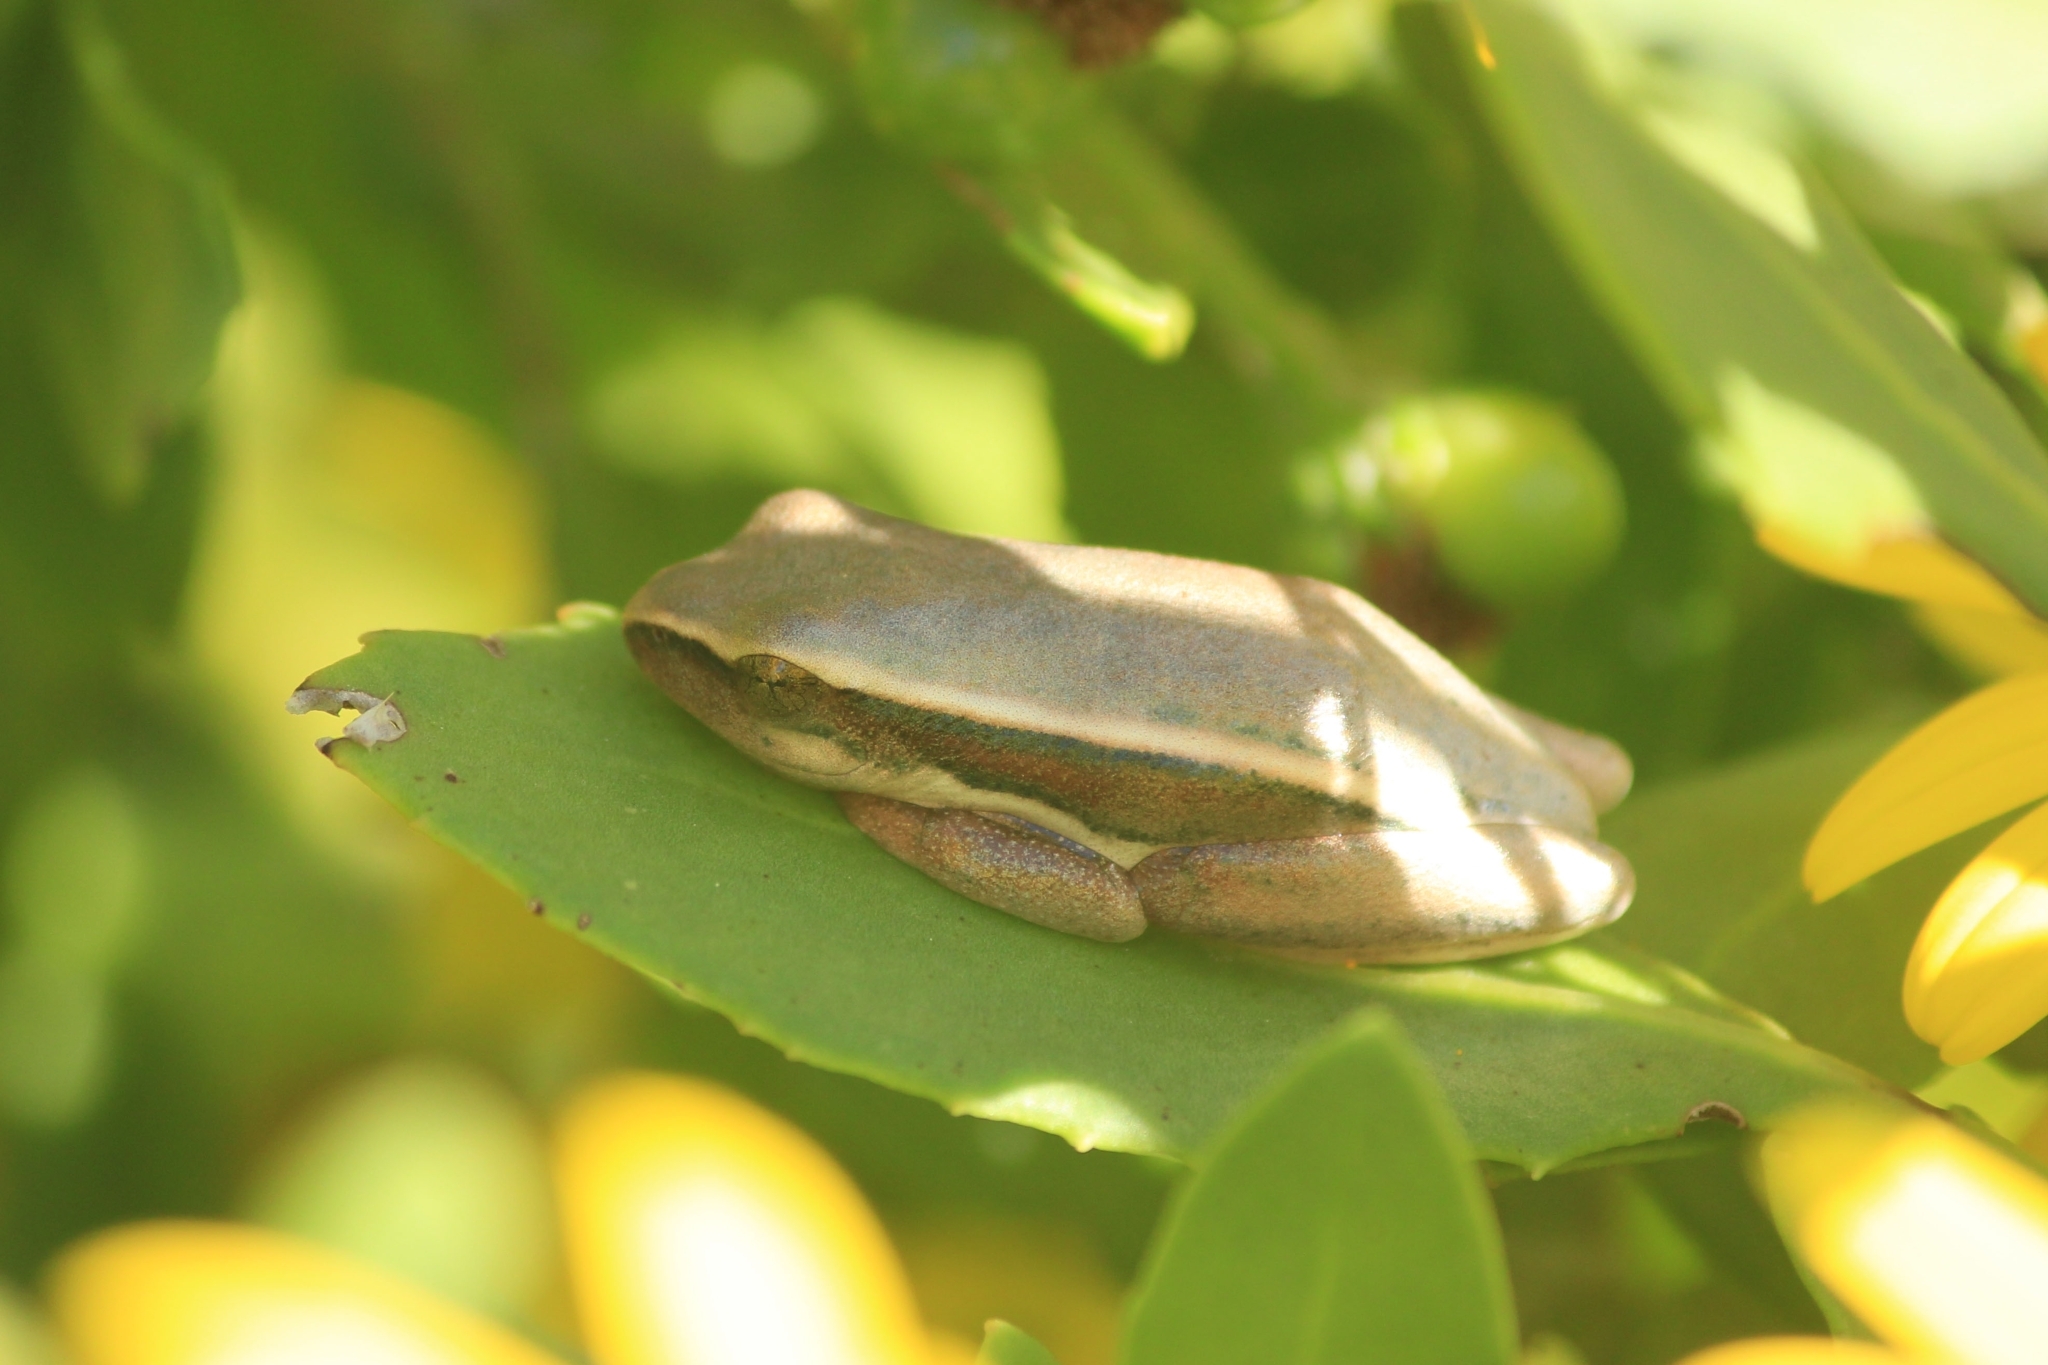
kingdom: Animalia
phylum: Chordata
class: Amphibia
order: Anura
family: Hyperoliidae
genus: Hyperolius
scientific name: Hyperolius horstockii
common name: Arum lily frog
